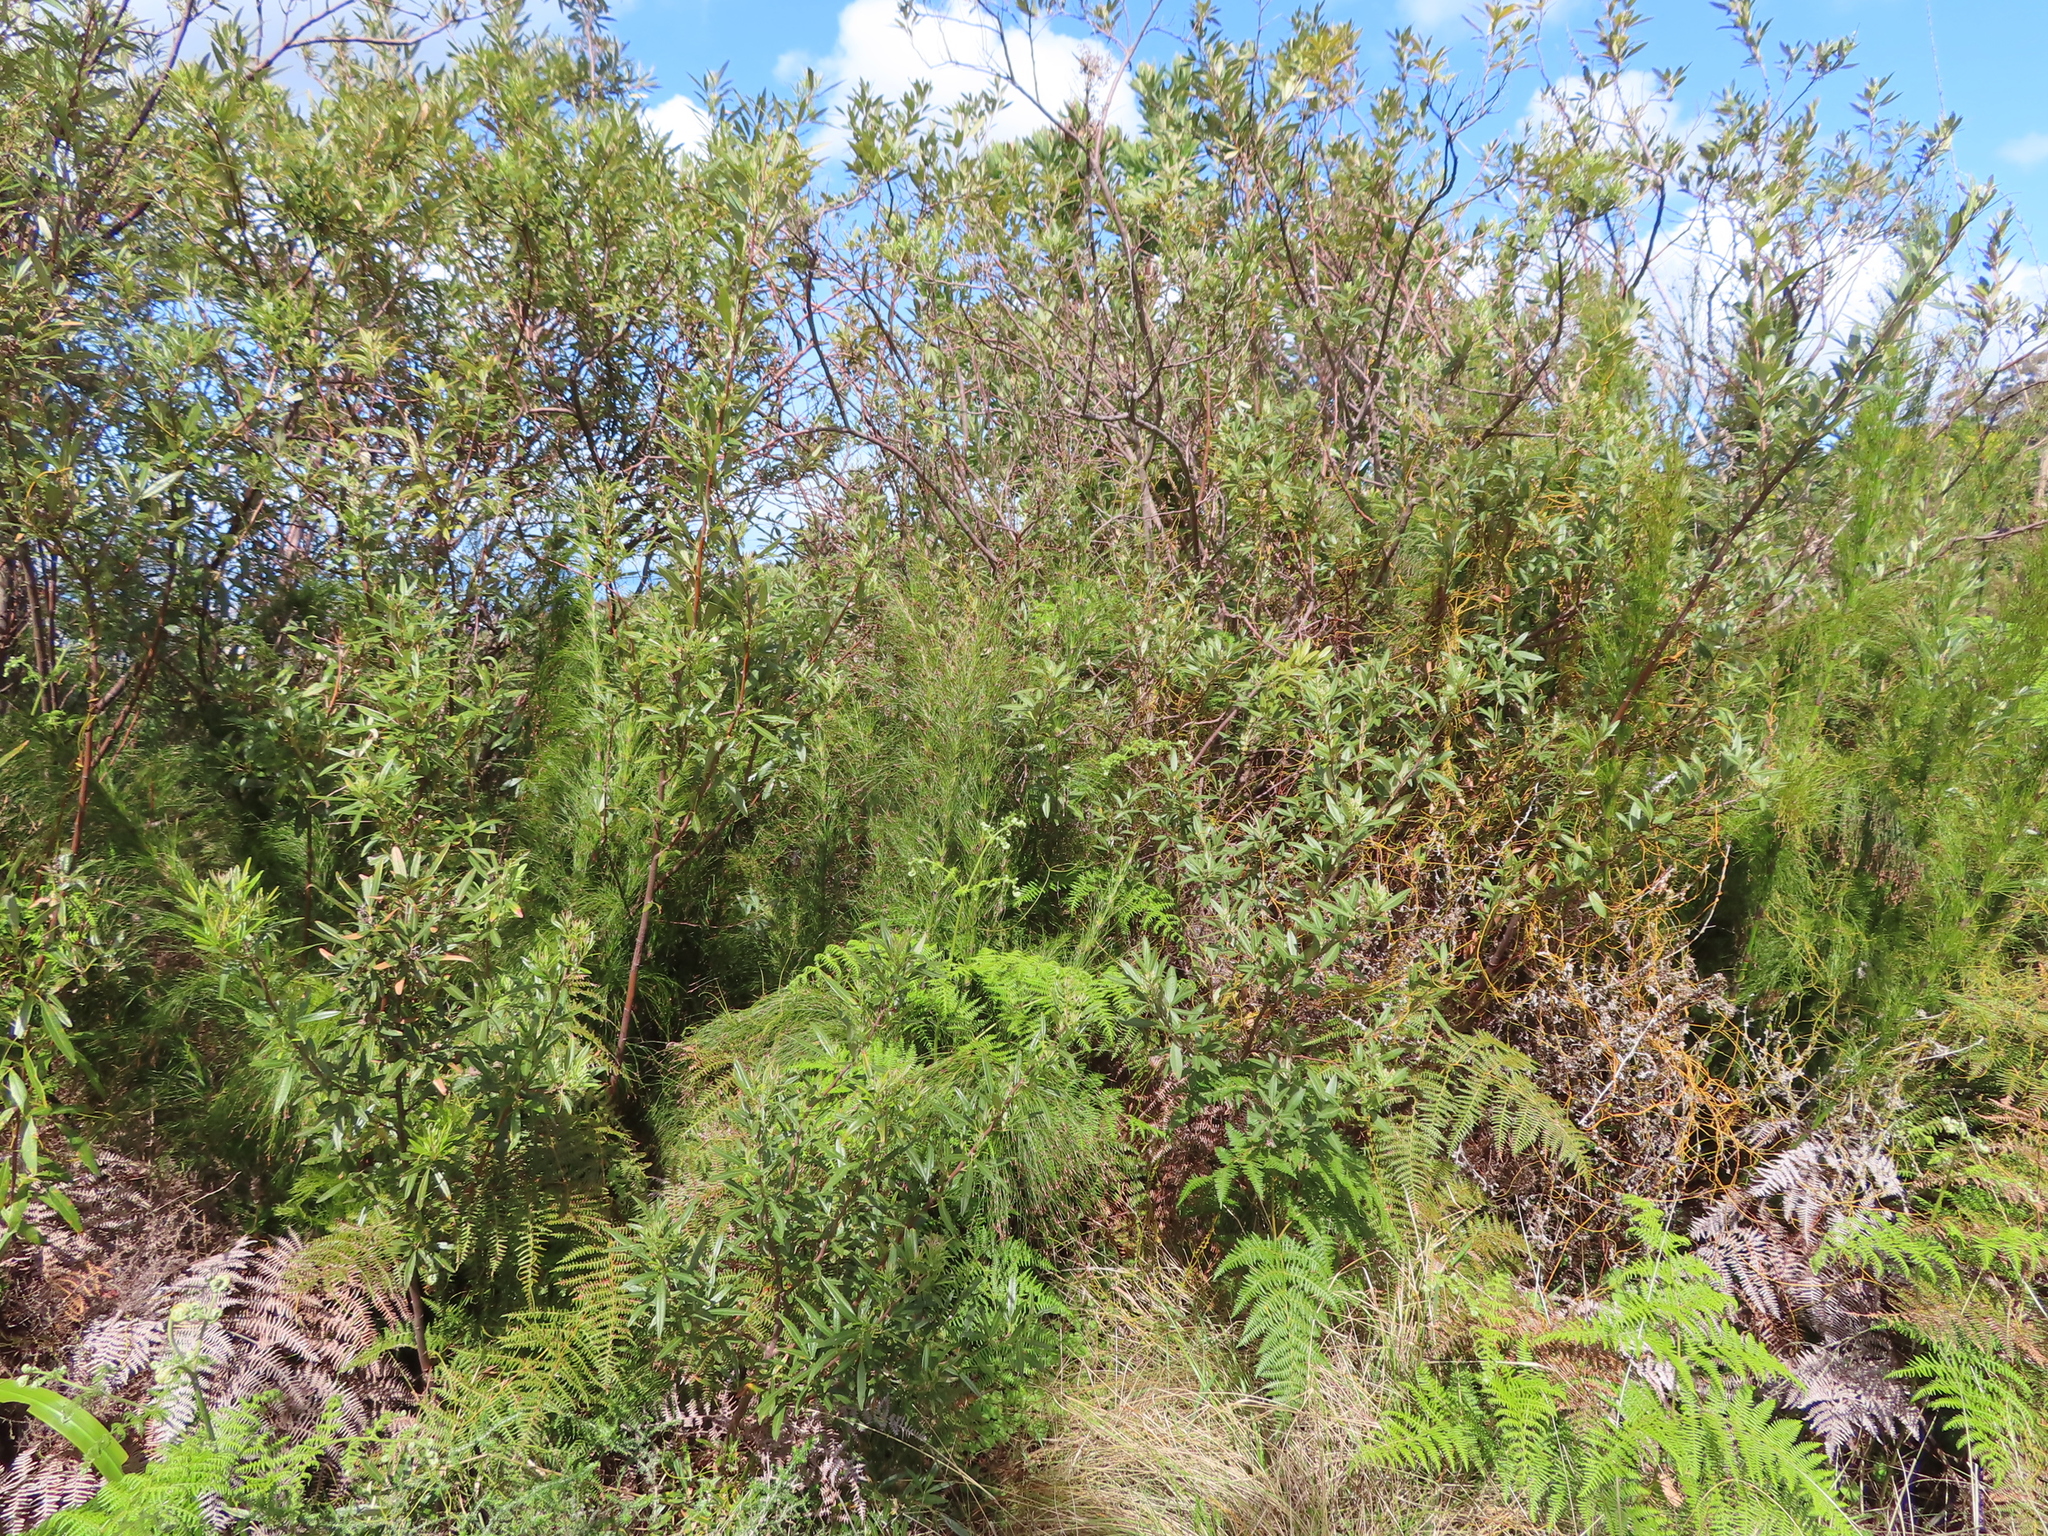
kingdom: Plantae
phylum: Tracheophyta
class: Liliopsida
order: Poales
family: Restionaceae
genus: Restio
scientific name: Restio subverticillatus
